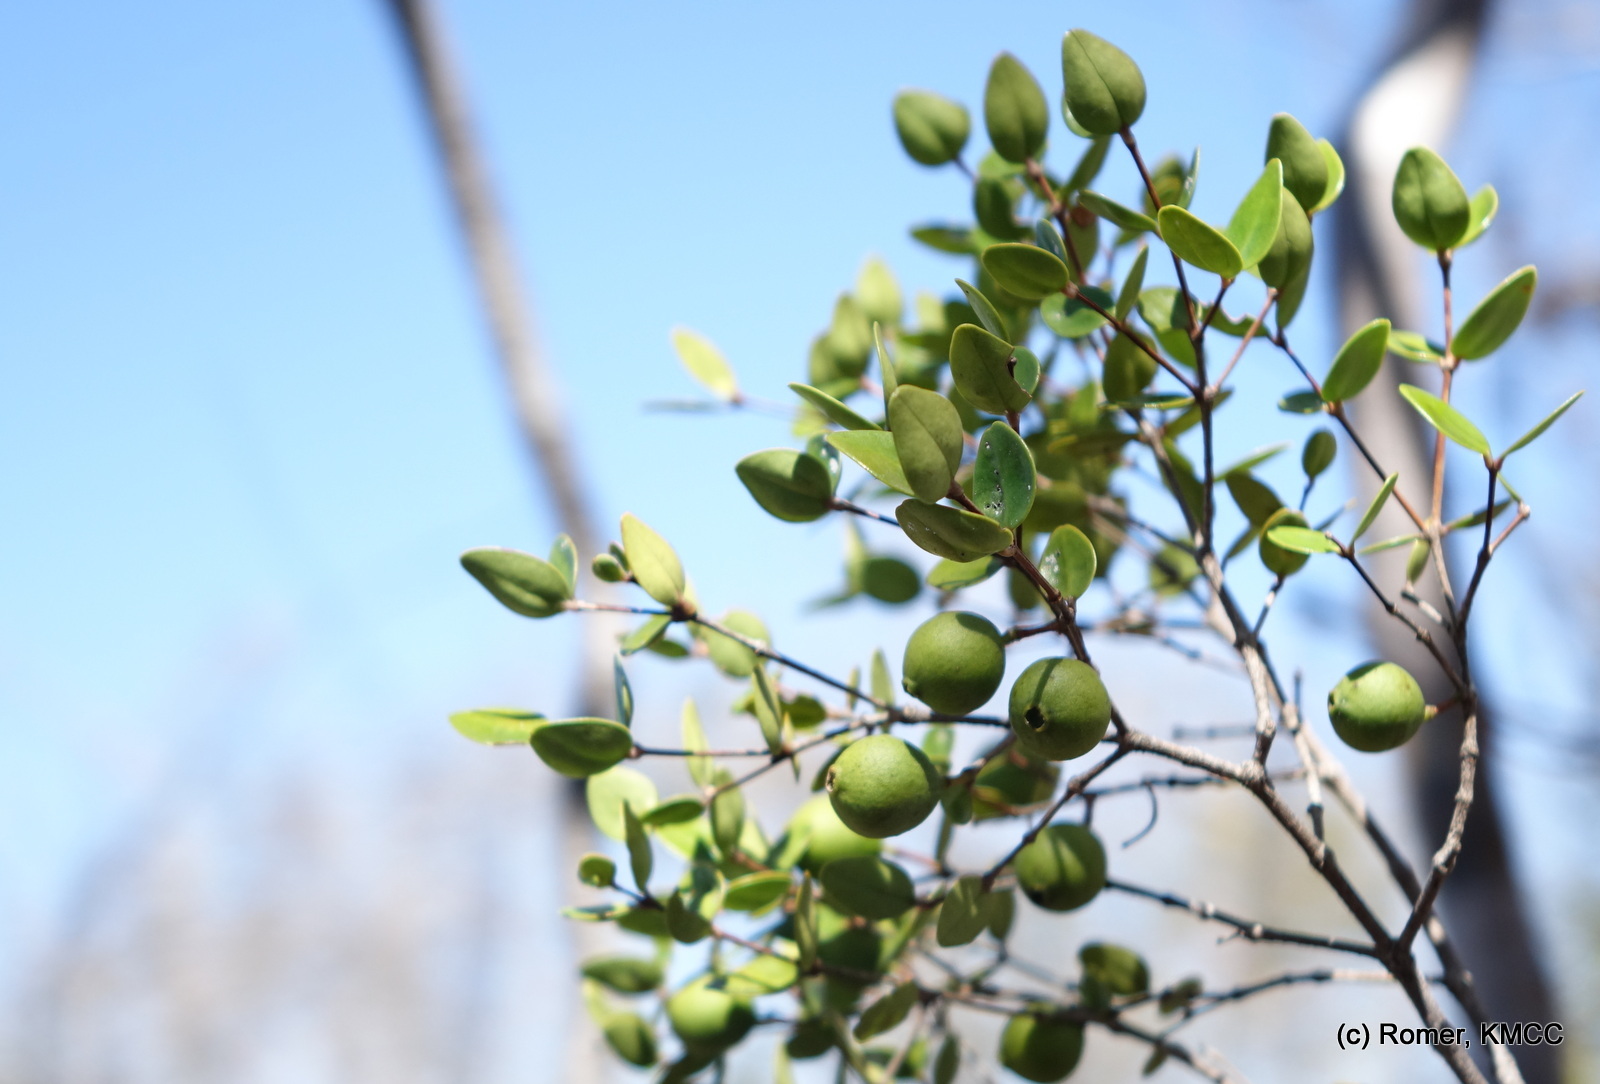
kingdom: Plantae
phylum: Tracheophyta
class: Magnoliopsida
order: Myrtales
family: Melastomataceae
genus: Memecylon
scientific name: Memecylon boinense
